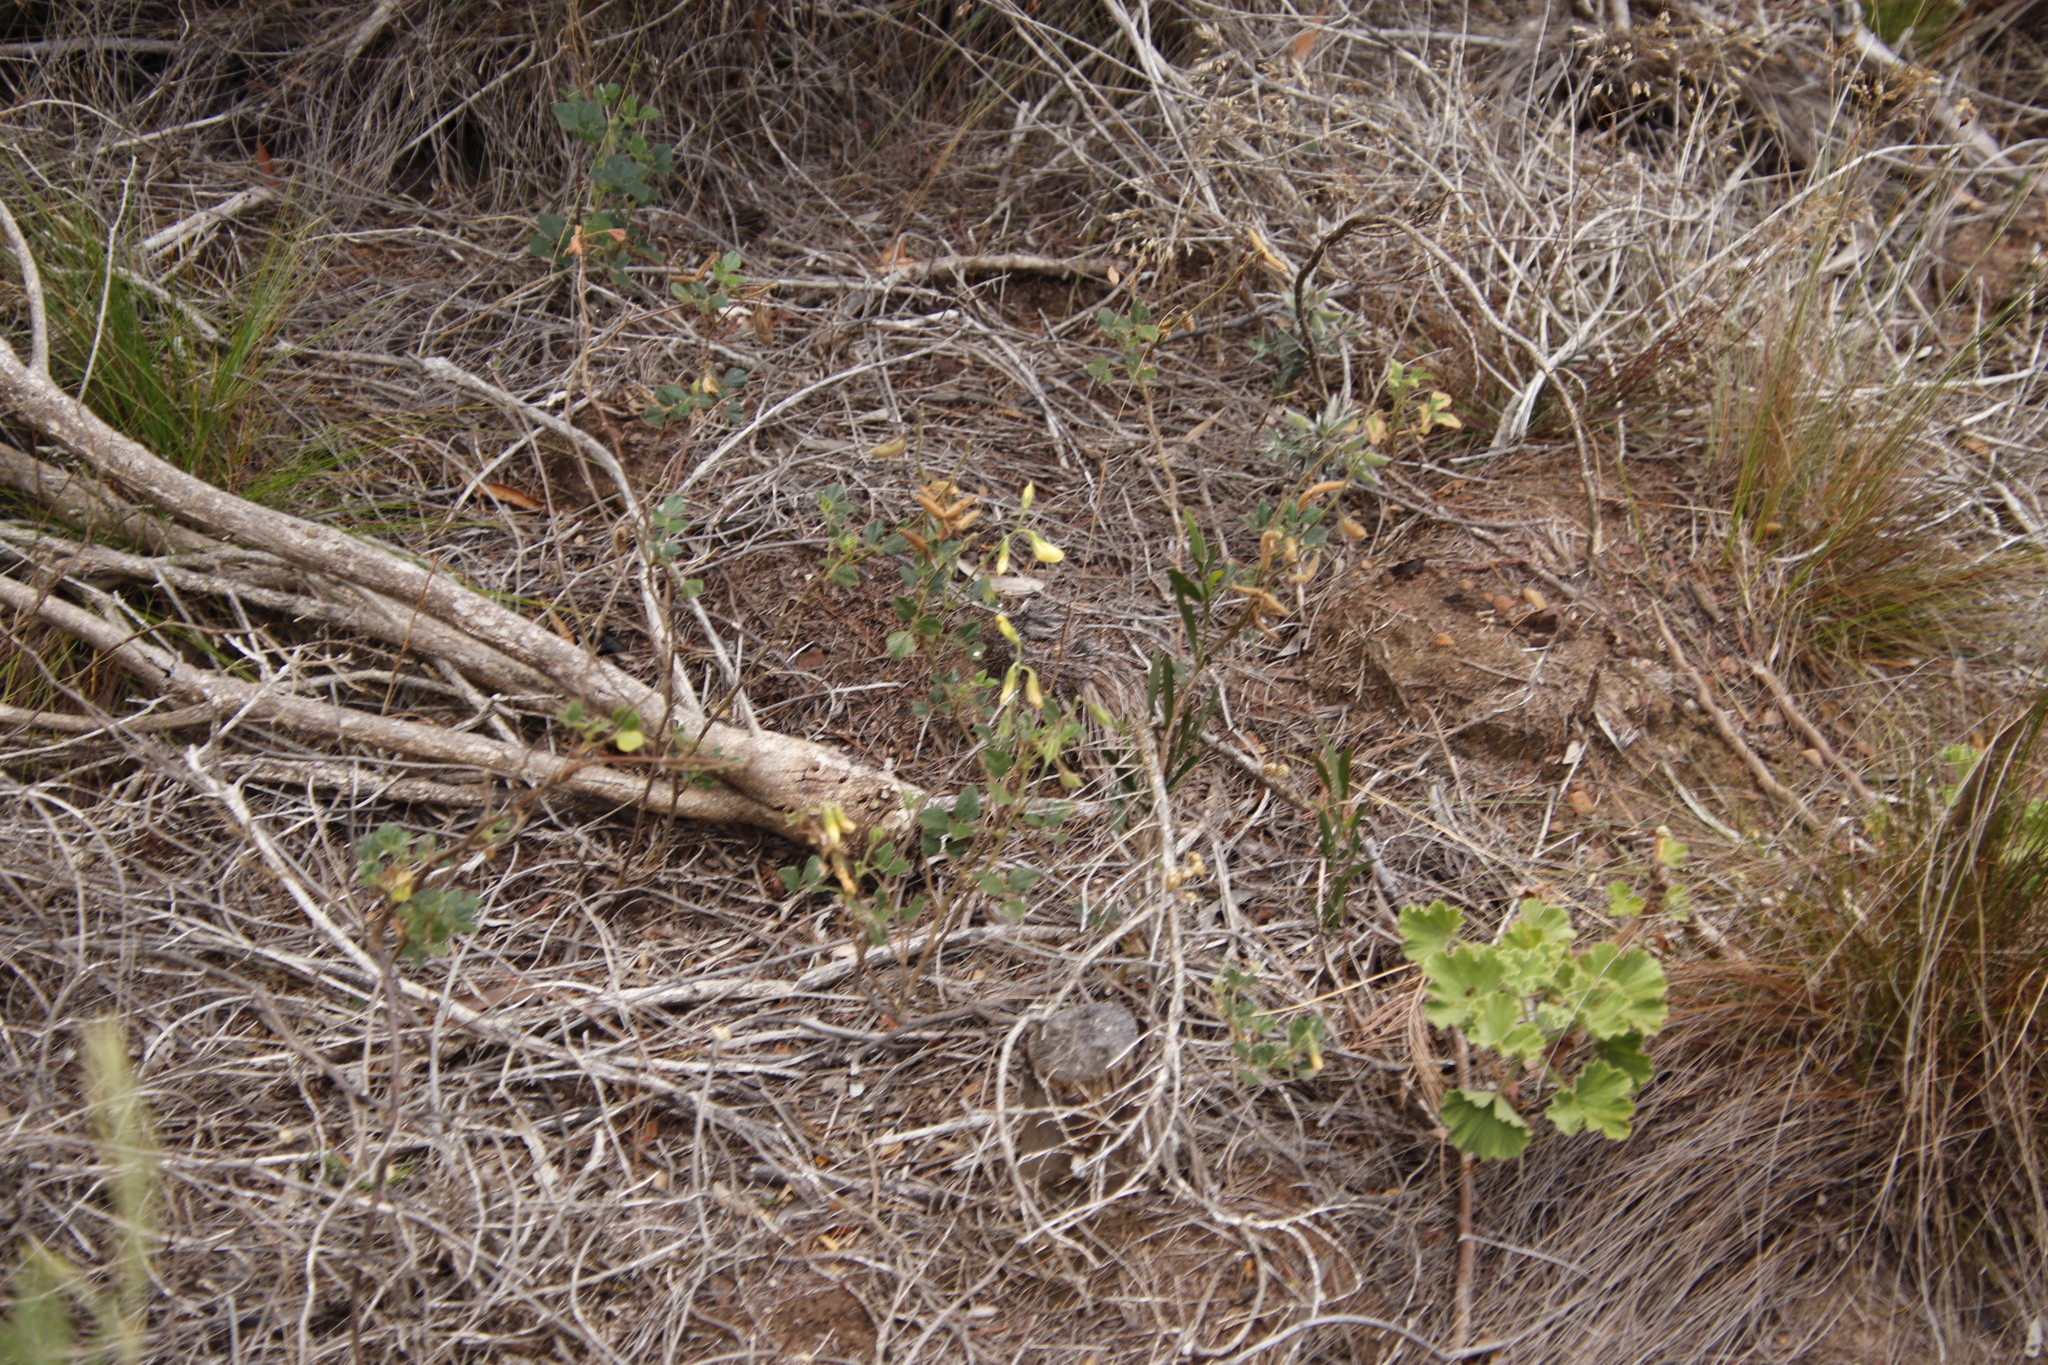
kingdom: Plantae
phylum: Tracheophyta
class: Magnoliopsida
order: Fabales
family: Fabaceae
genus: Bolusafra
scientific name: Bolusafra bituminosa
